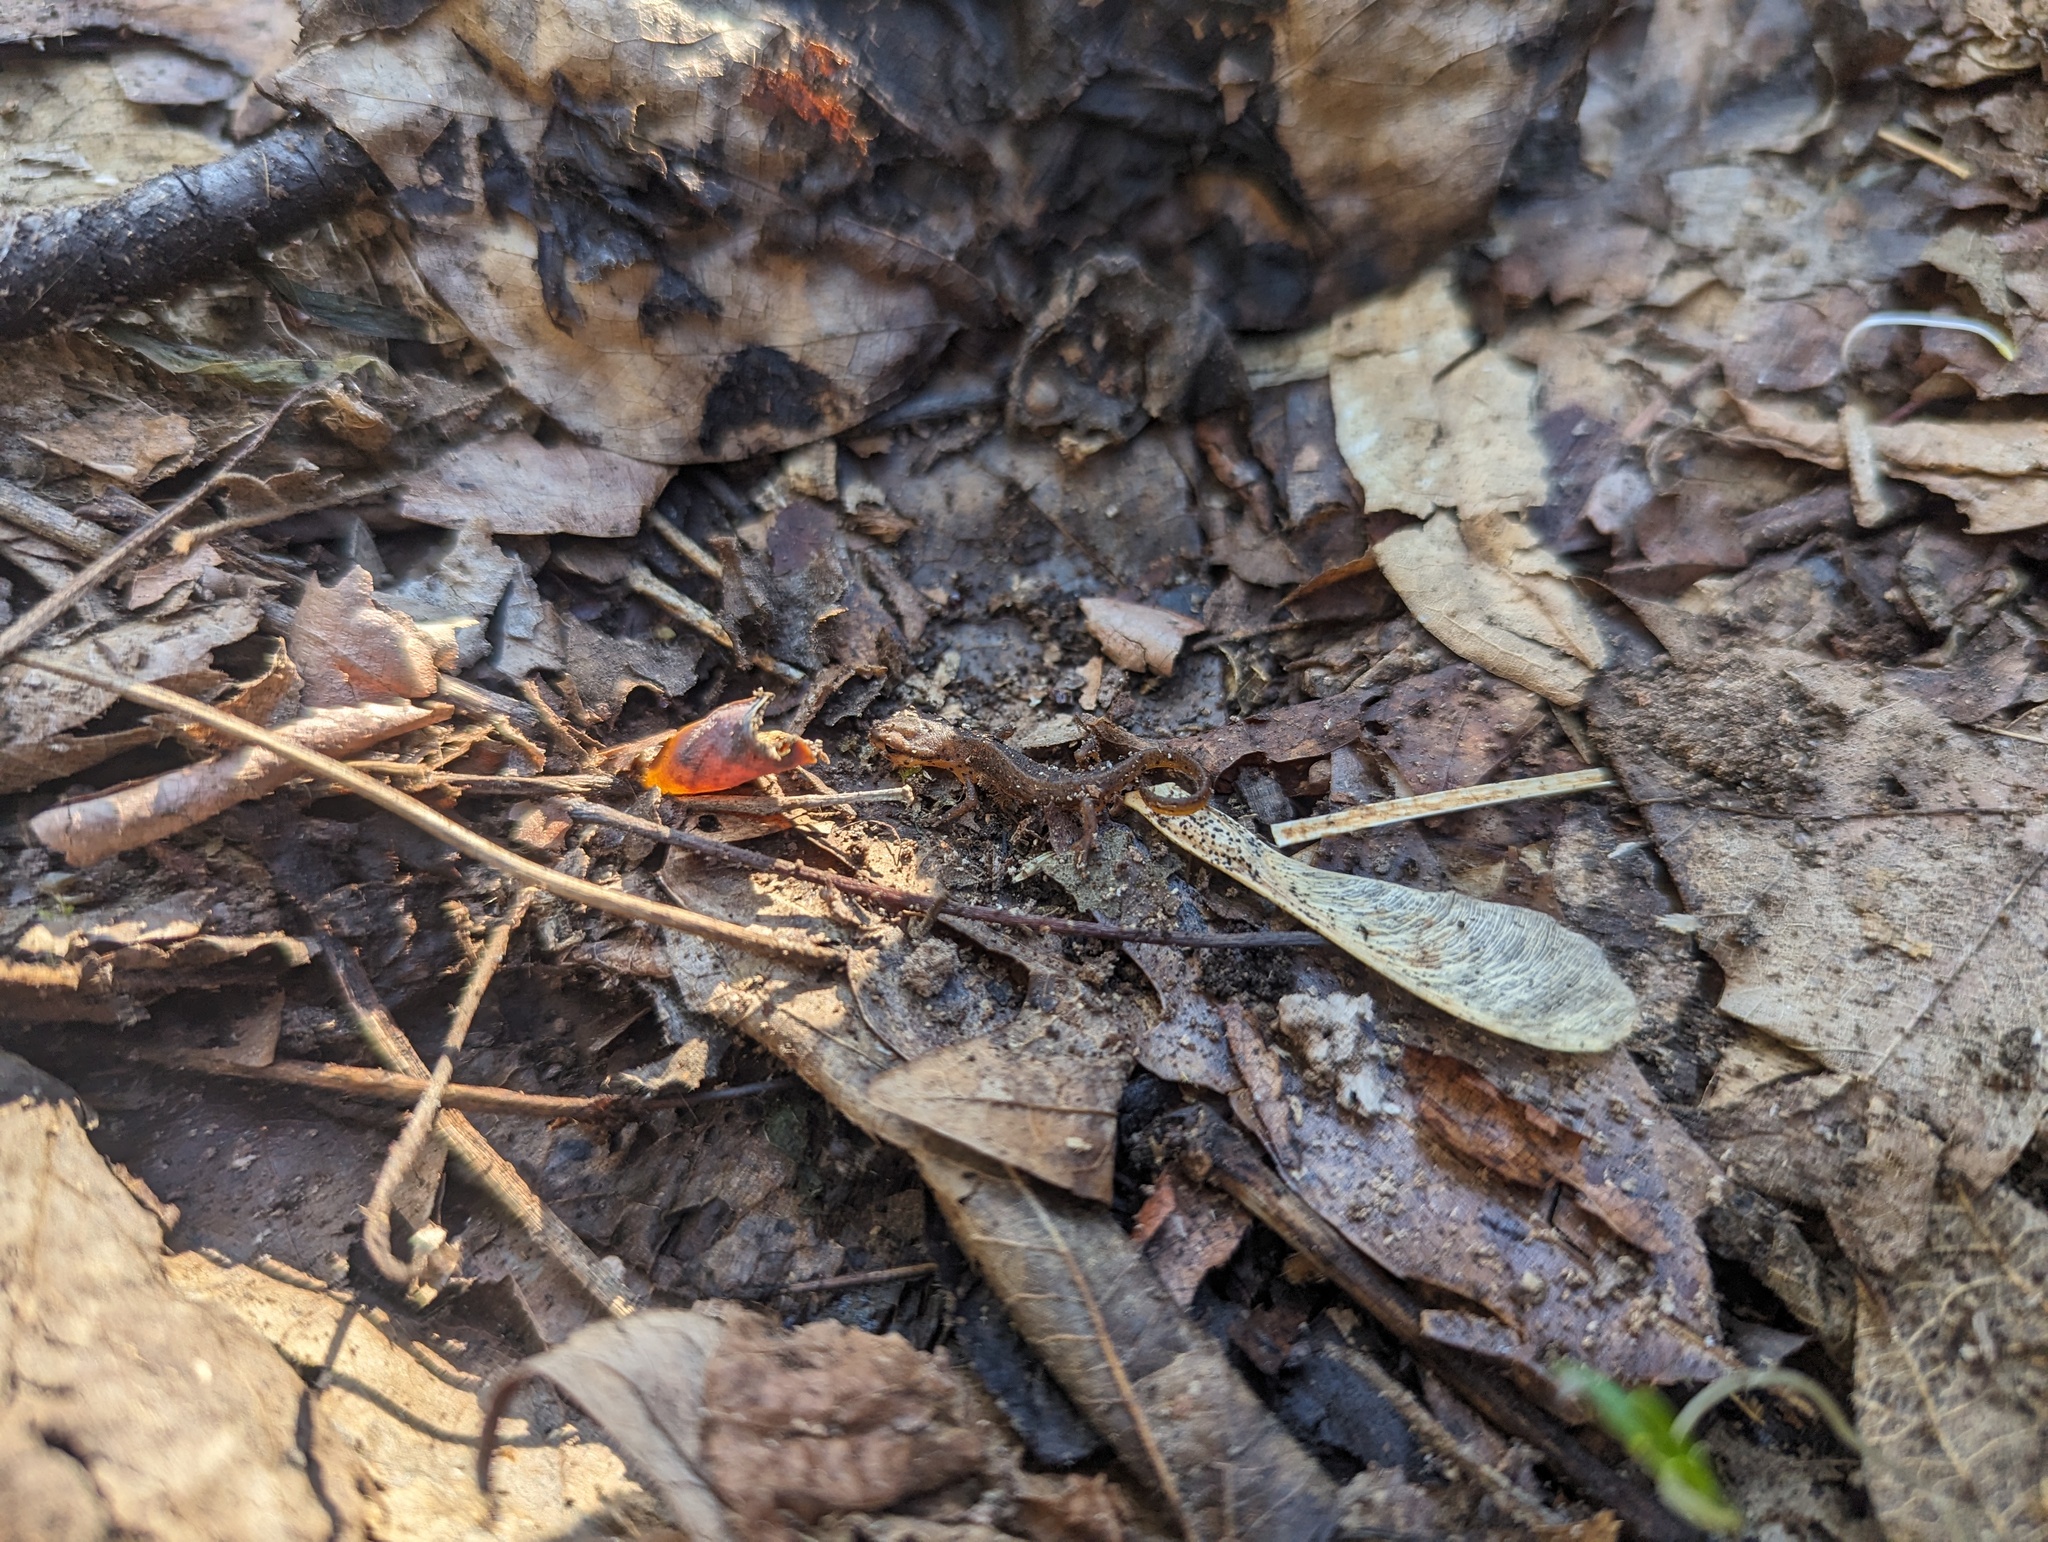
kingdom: Animalia
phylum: Chordata
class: Amphibia
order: Caudata
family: Salamandridae
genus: Notophthalmus
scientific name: Notophthalmus viridescens
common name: Eastern newt
